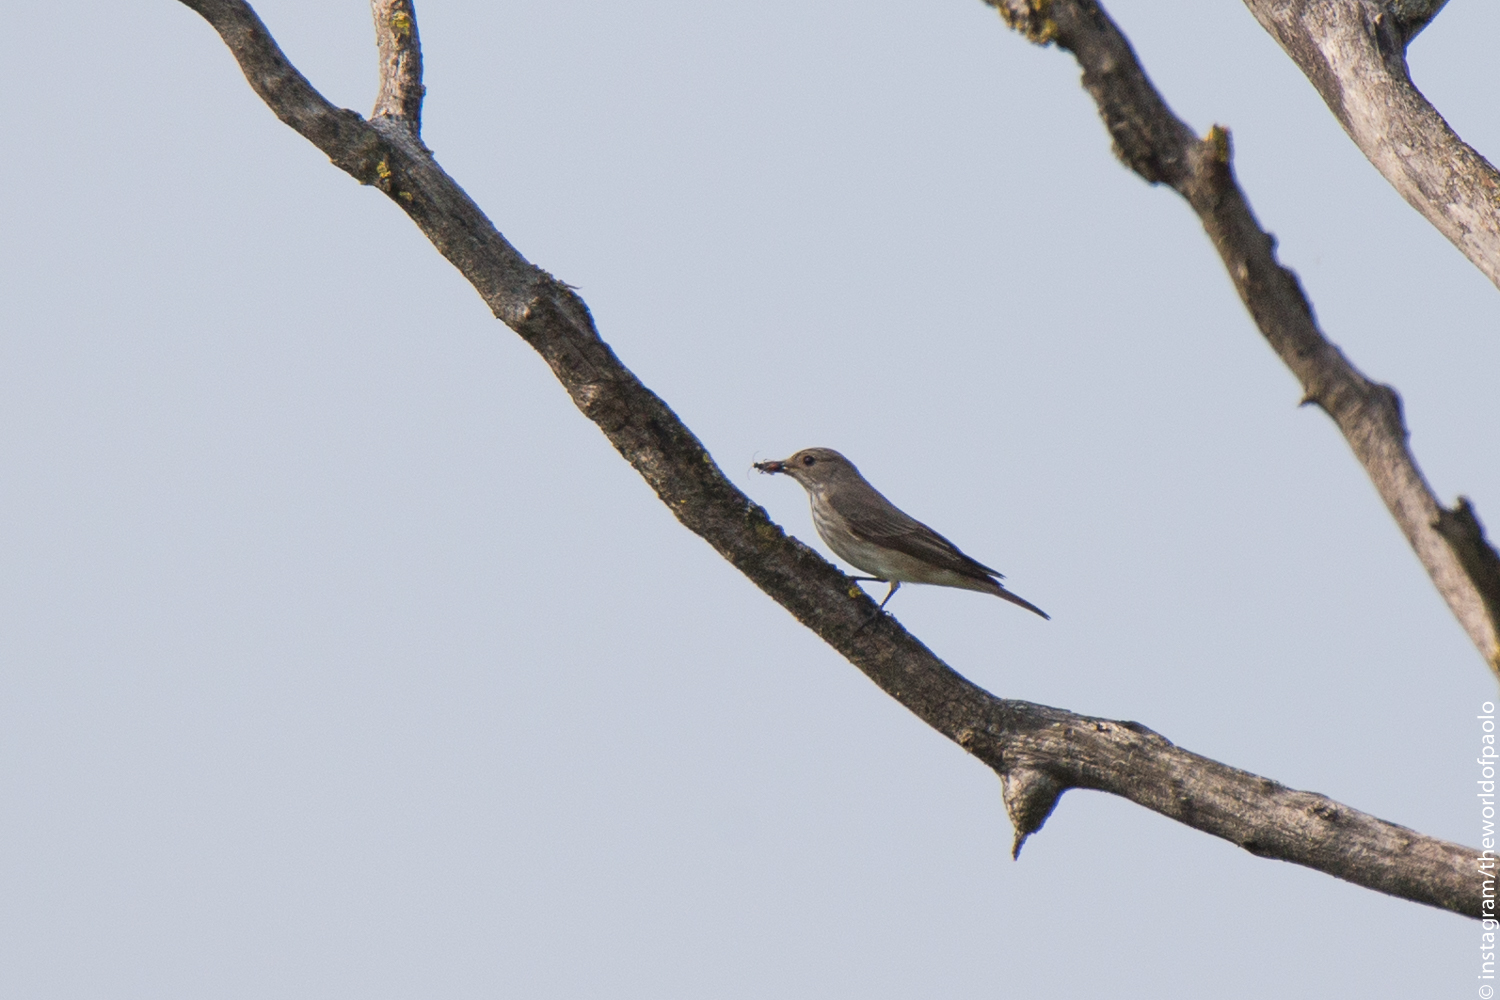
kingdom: Animalia
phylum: Chordata
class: Aves
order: Passeriformes
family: Muscicapidae
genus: Muscicapa
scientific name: Muscicapa striata
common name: Spotted flycatcher
